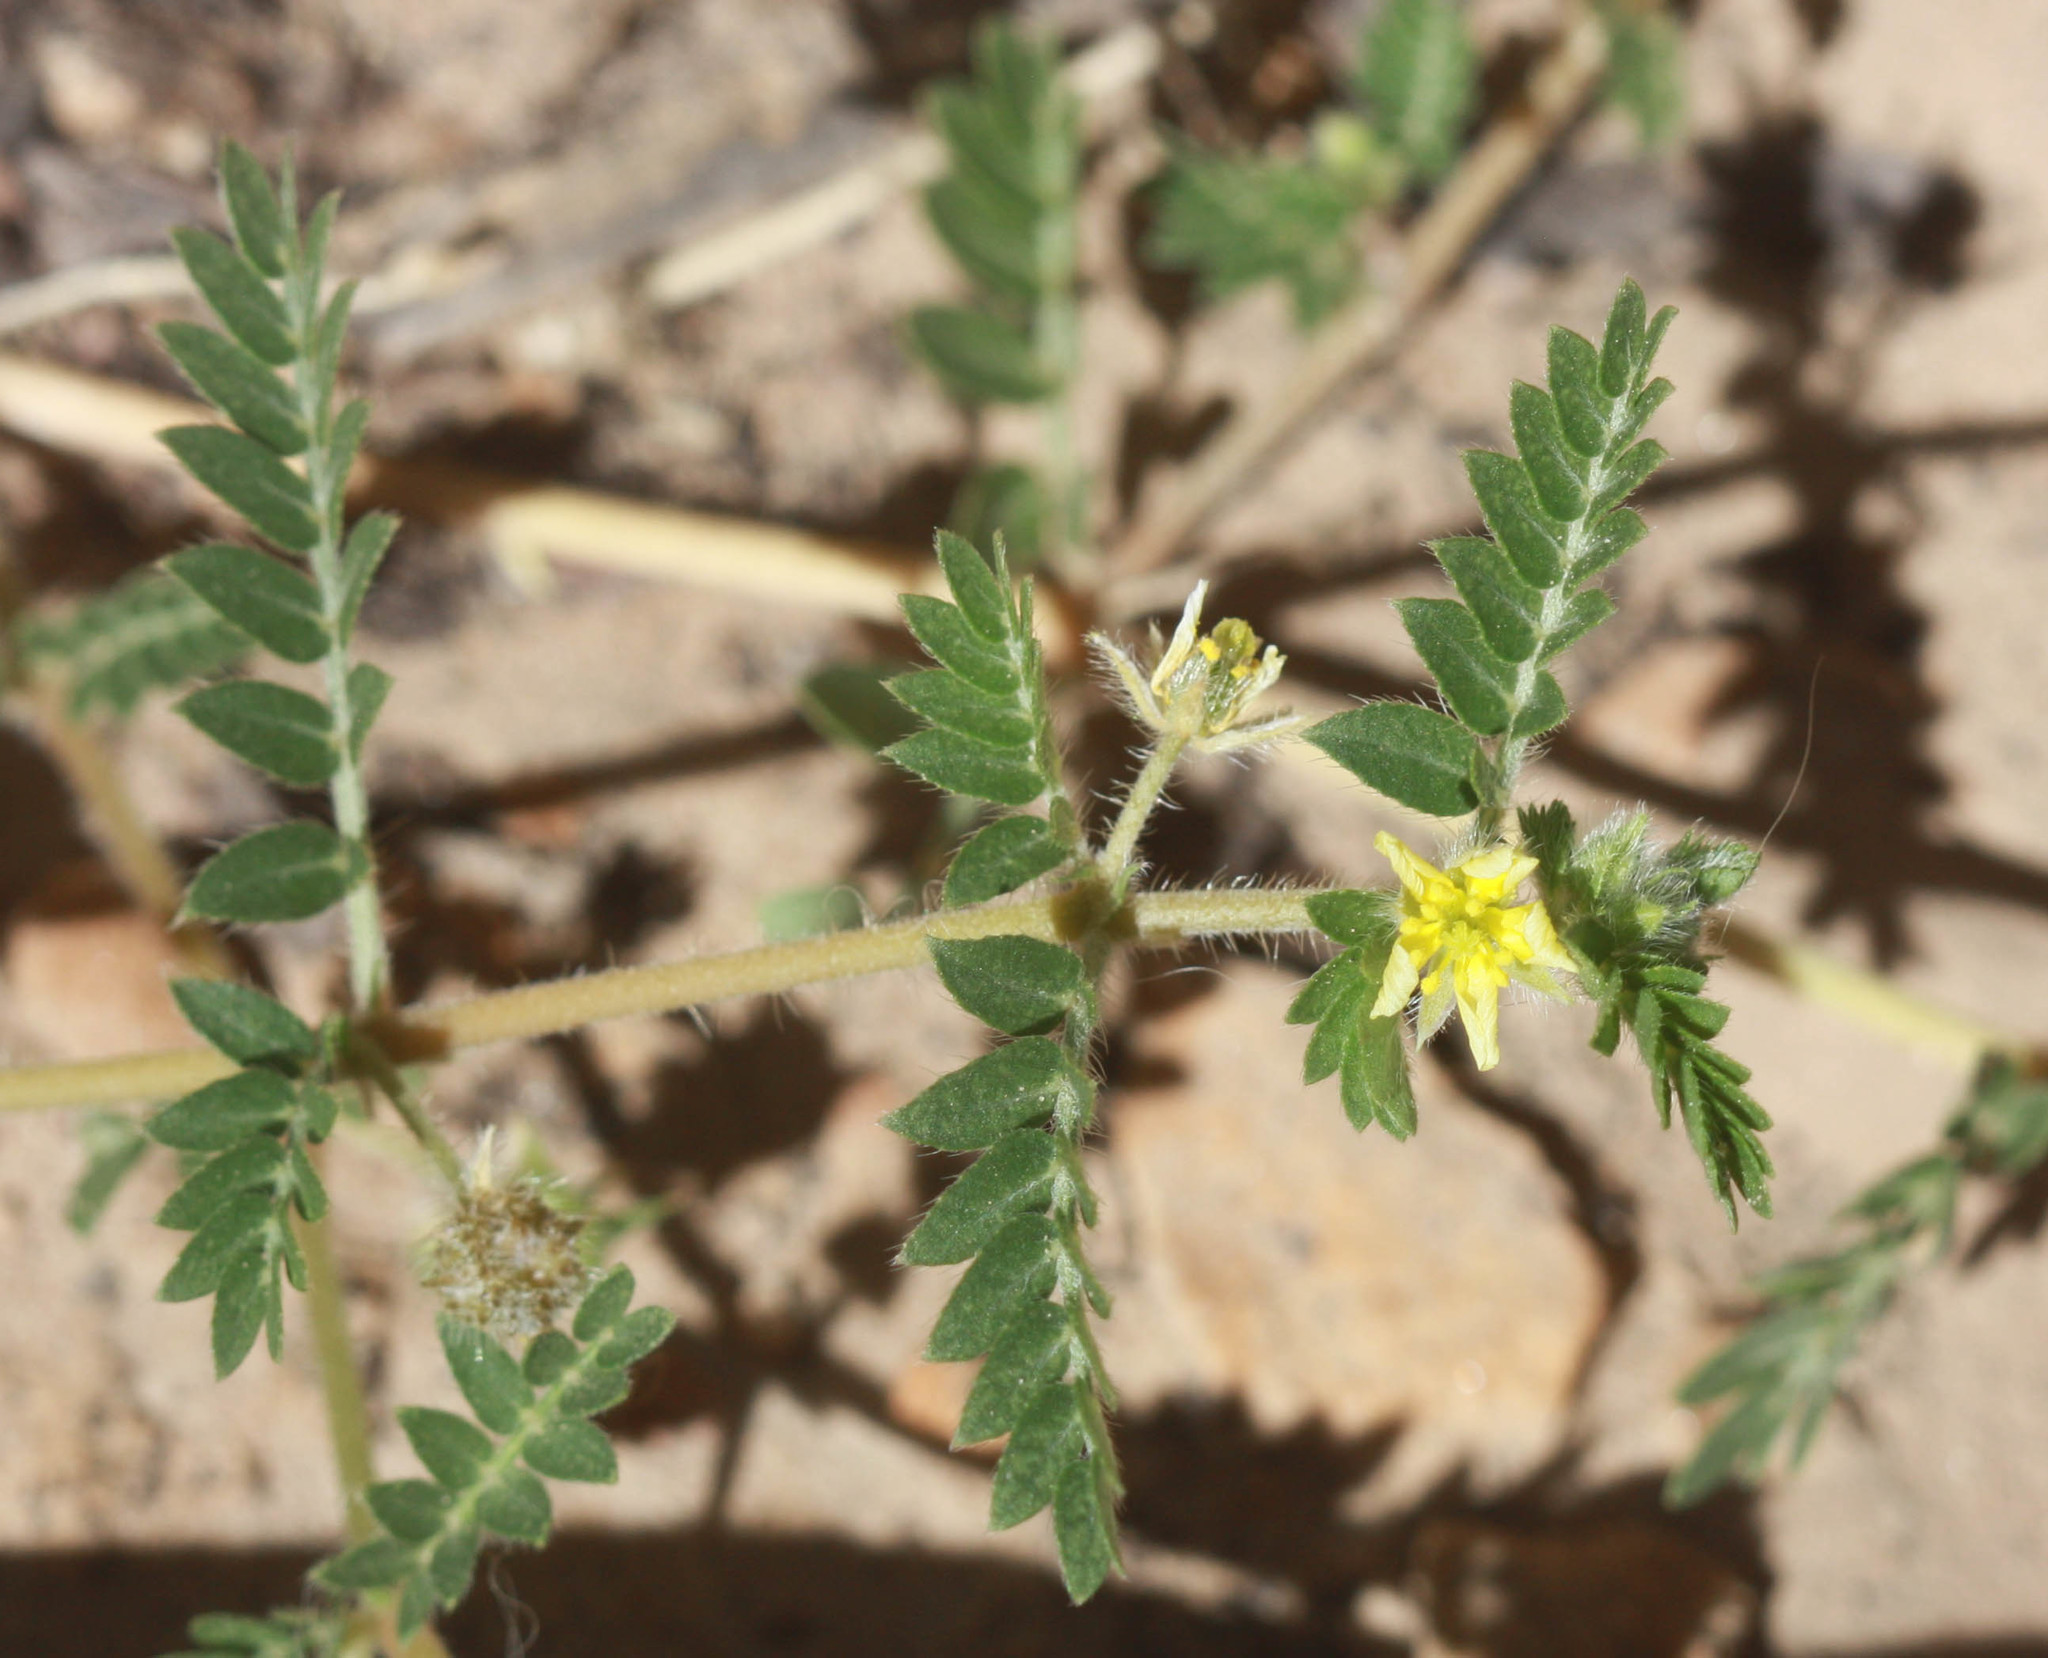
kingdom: Plantae
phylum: Tracheophyta
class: Magnoliopsida
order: Zygophyllales
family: Zygophyllaceae
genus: Tribulus
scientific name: Tribulus terrestris
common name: Puncturevine
